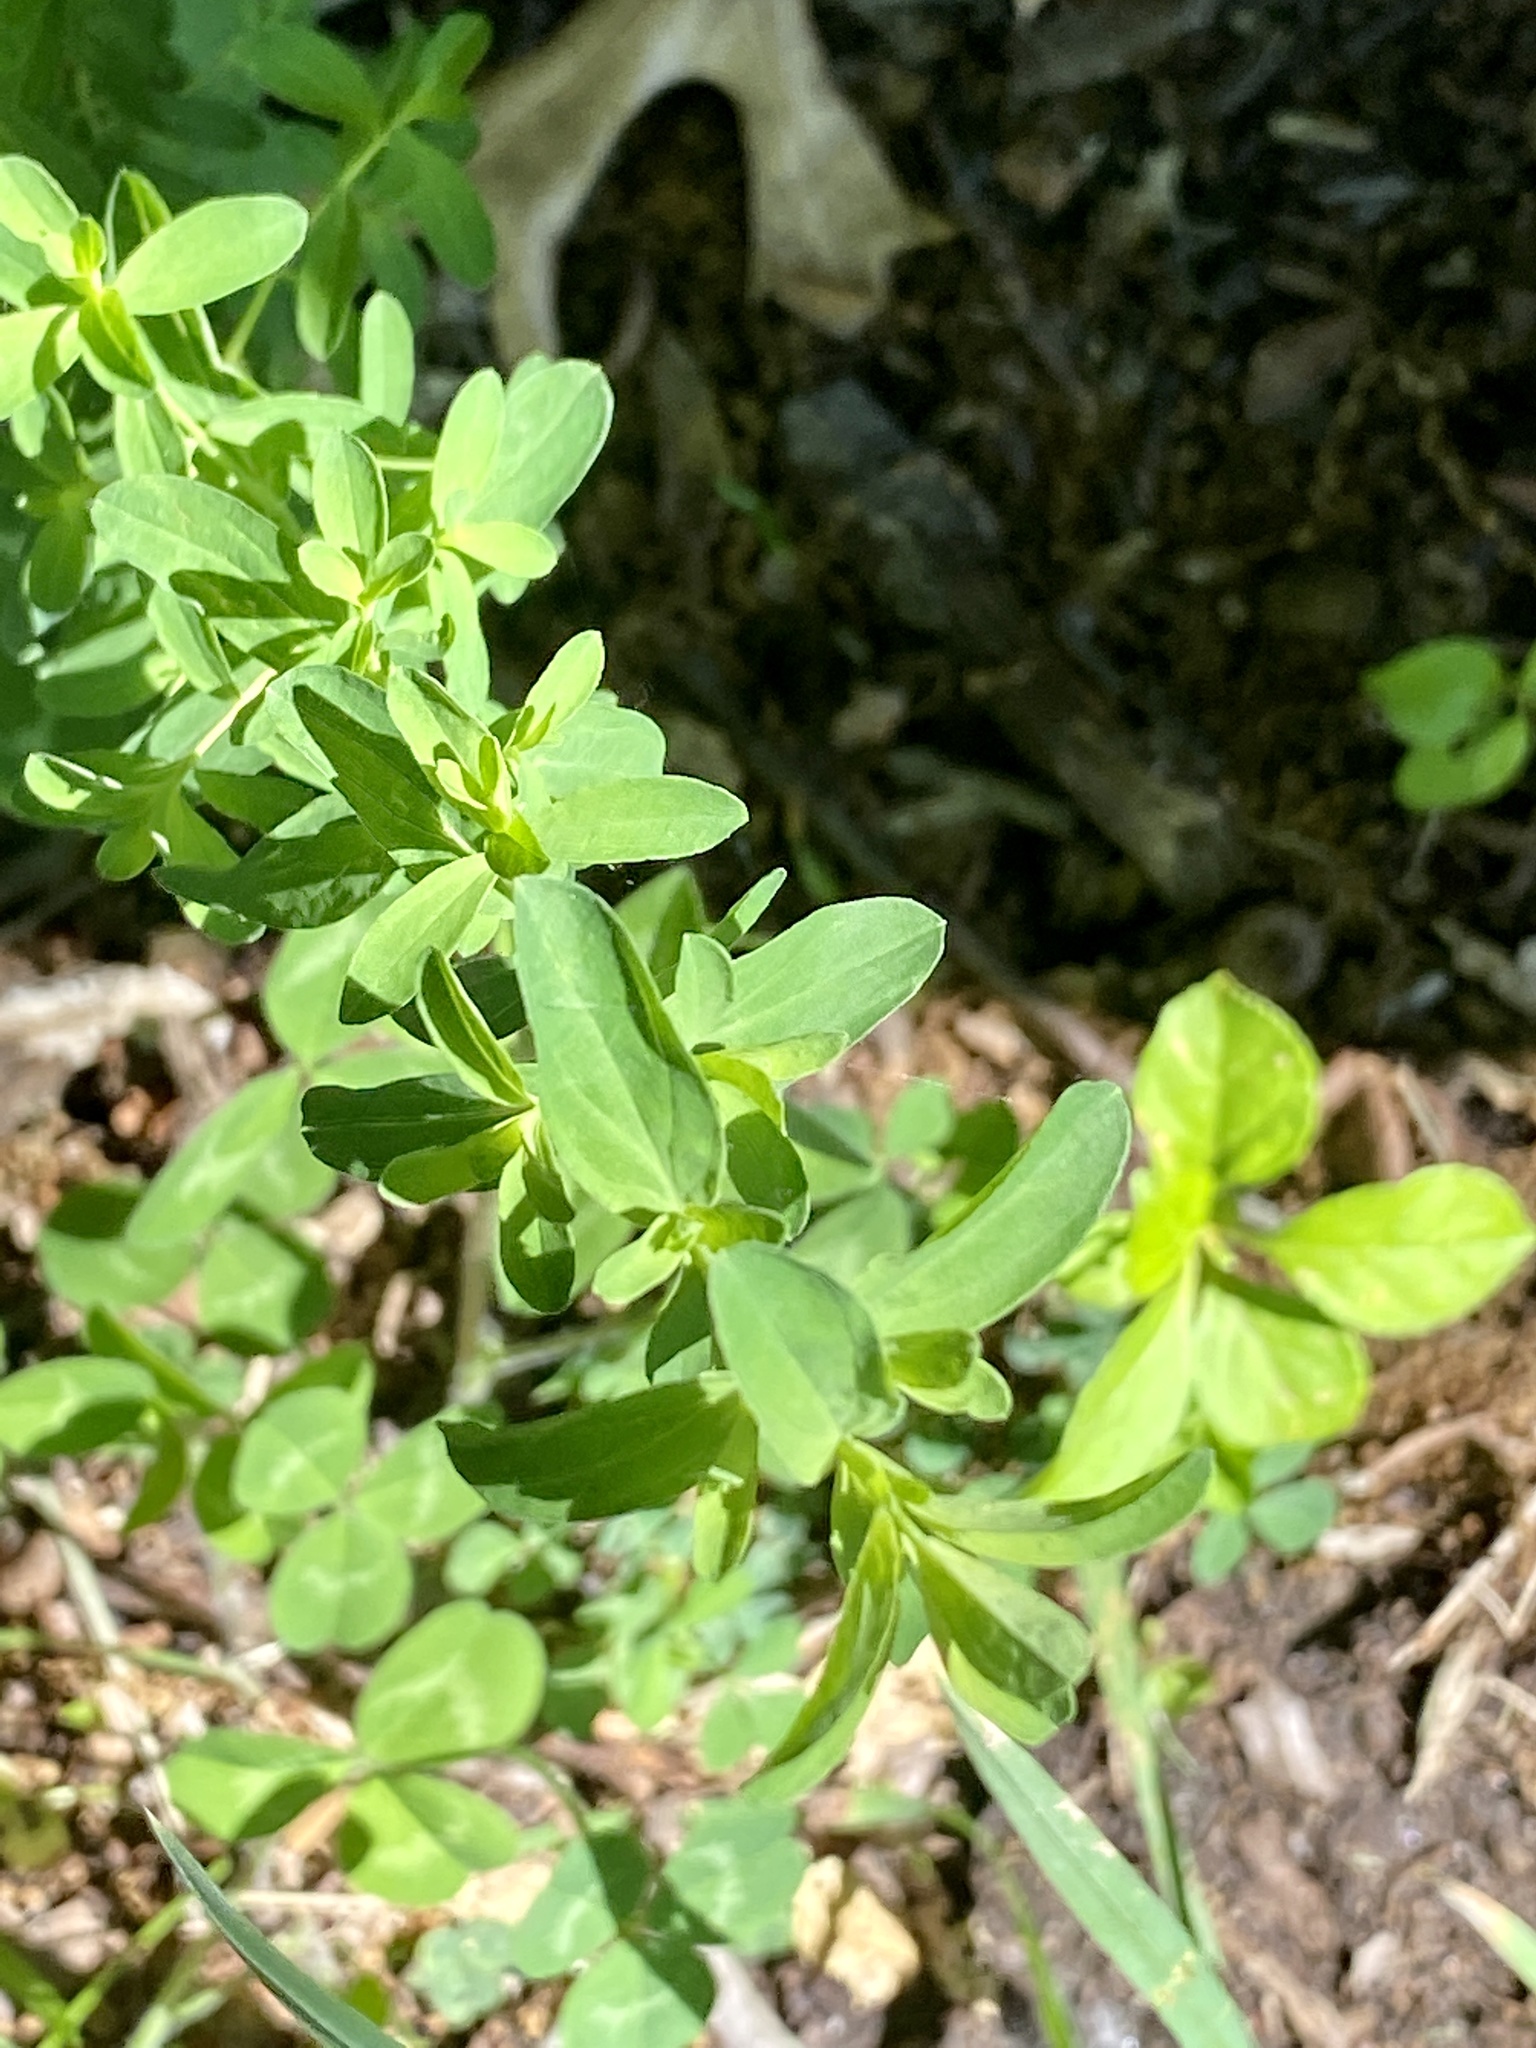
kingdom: Plantae
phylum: Tracheophyta
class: Magnoliopsida
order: Malpighiales
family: Hypericaceae
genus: Hypericum
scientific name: Hypericum perforatum
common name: Common st. johnswort
